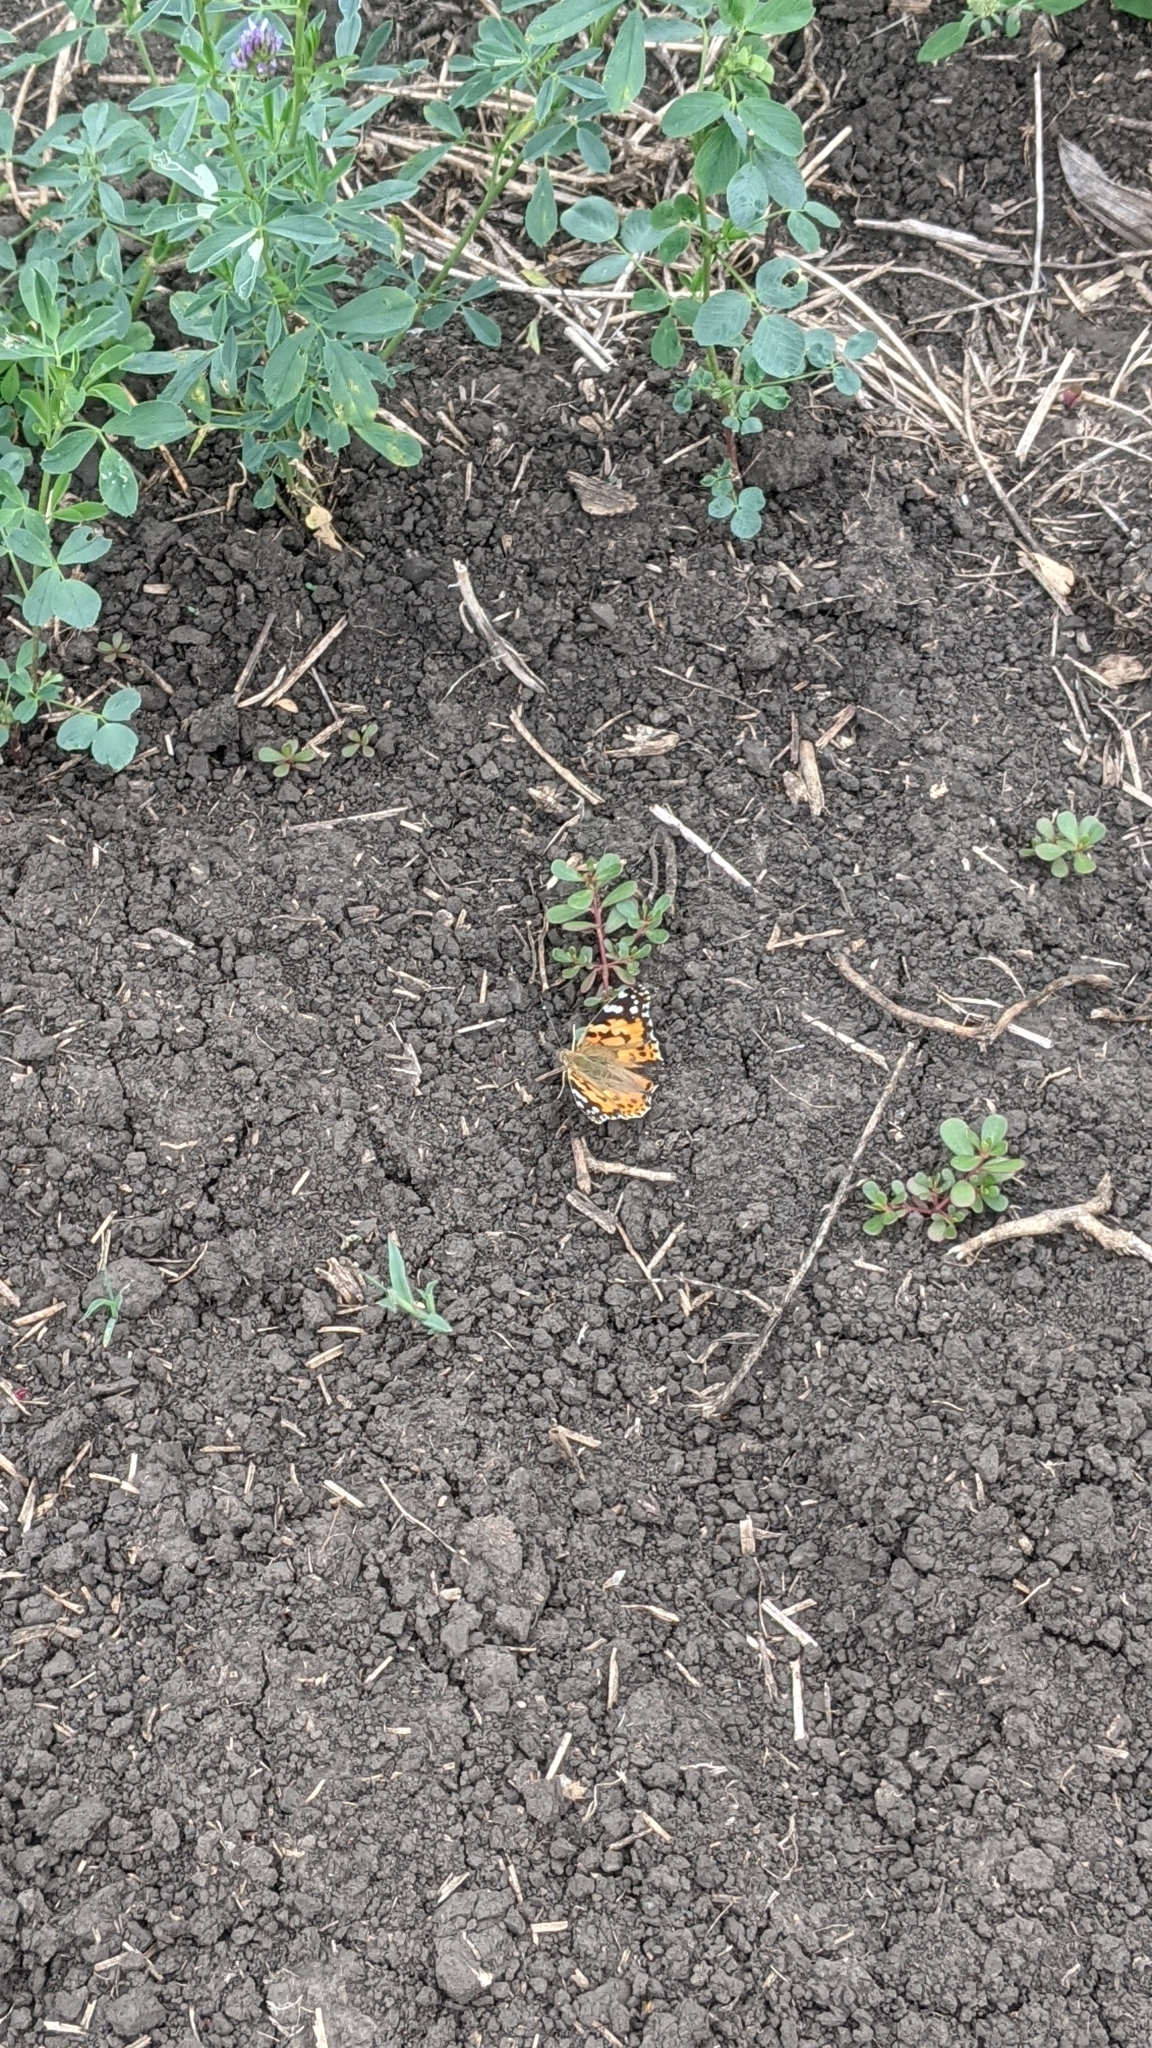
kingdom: Animalia
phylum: Arthropoda
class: Insecta
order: Lepidoptera
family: Nymphalidae
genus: Vanessa
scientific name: Vanessa cardui
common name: Painted lady
